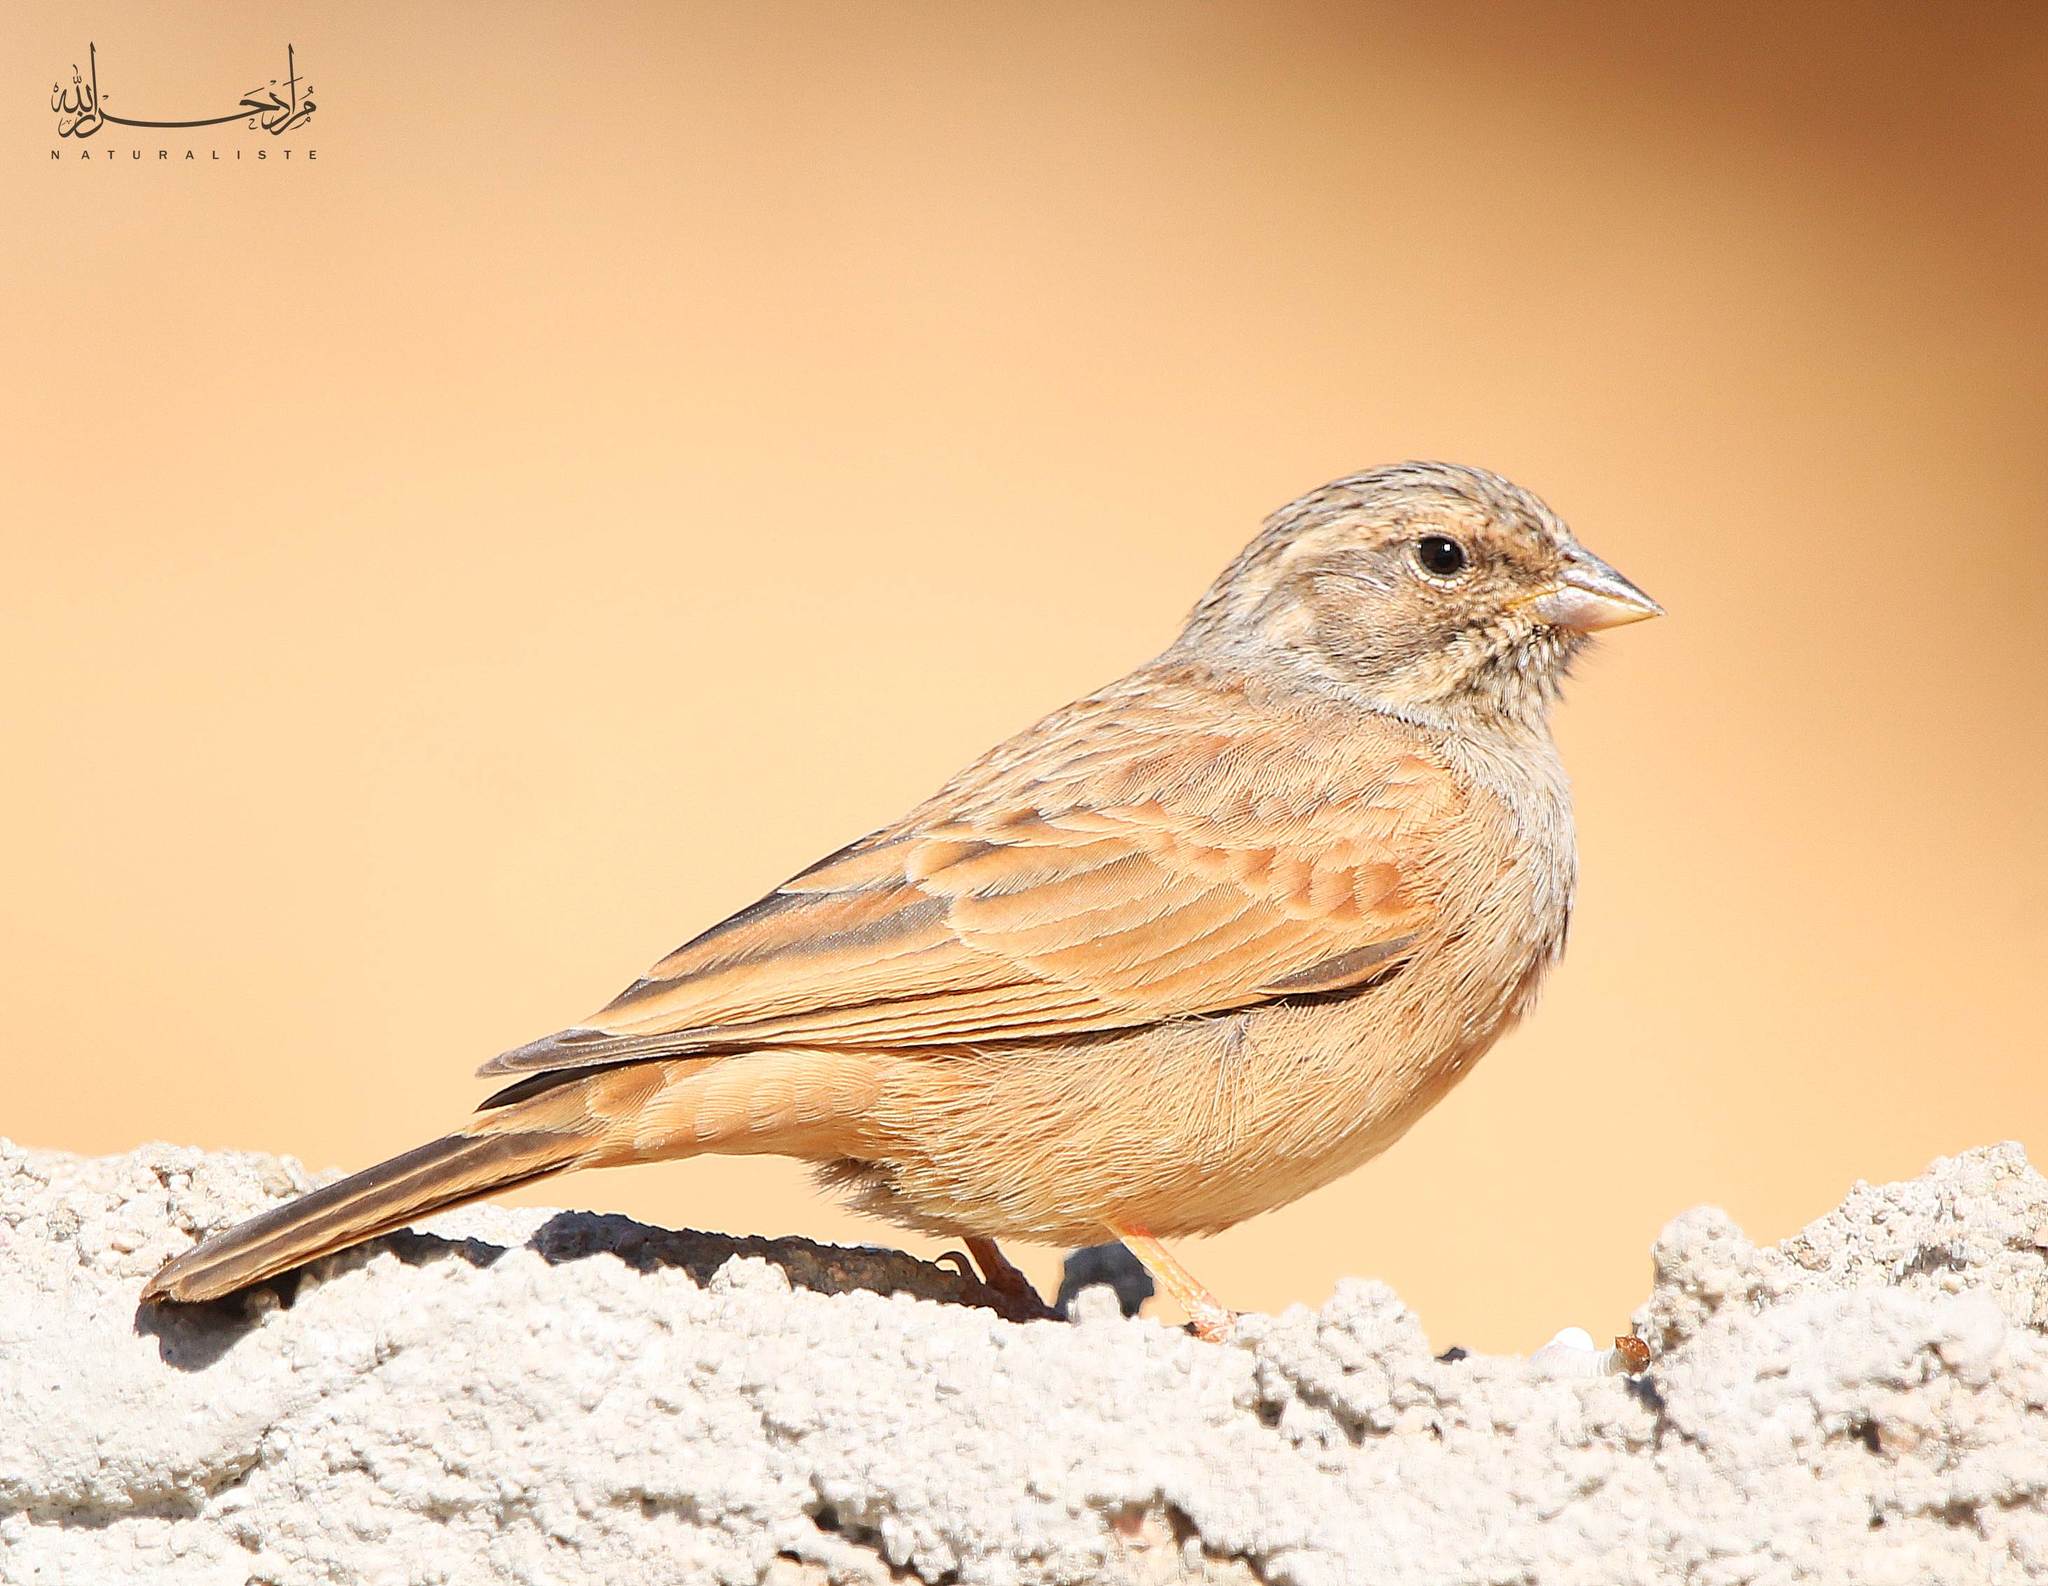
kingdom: Animalia
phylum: Chordata
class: Aves
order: Passeriformes
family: Emberizidae
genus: Emberiza
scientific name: Emberiza sahari
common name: House bunting
